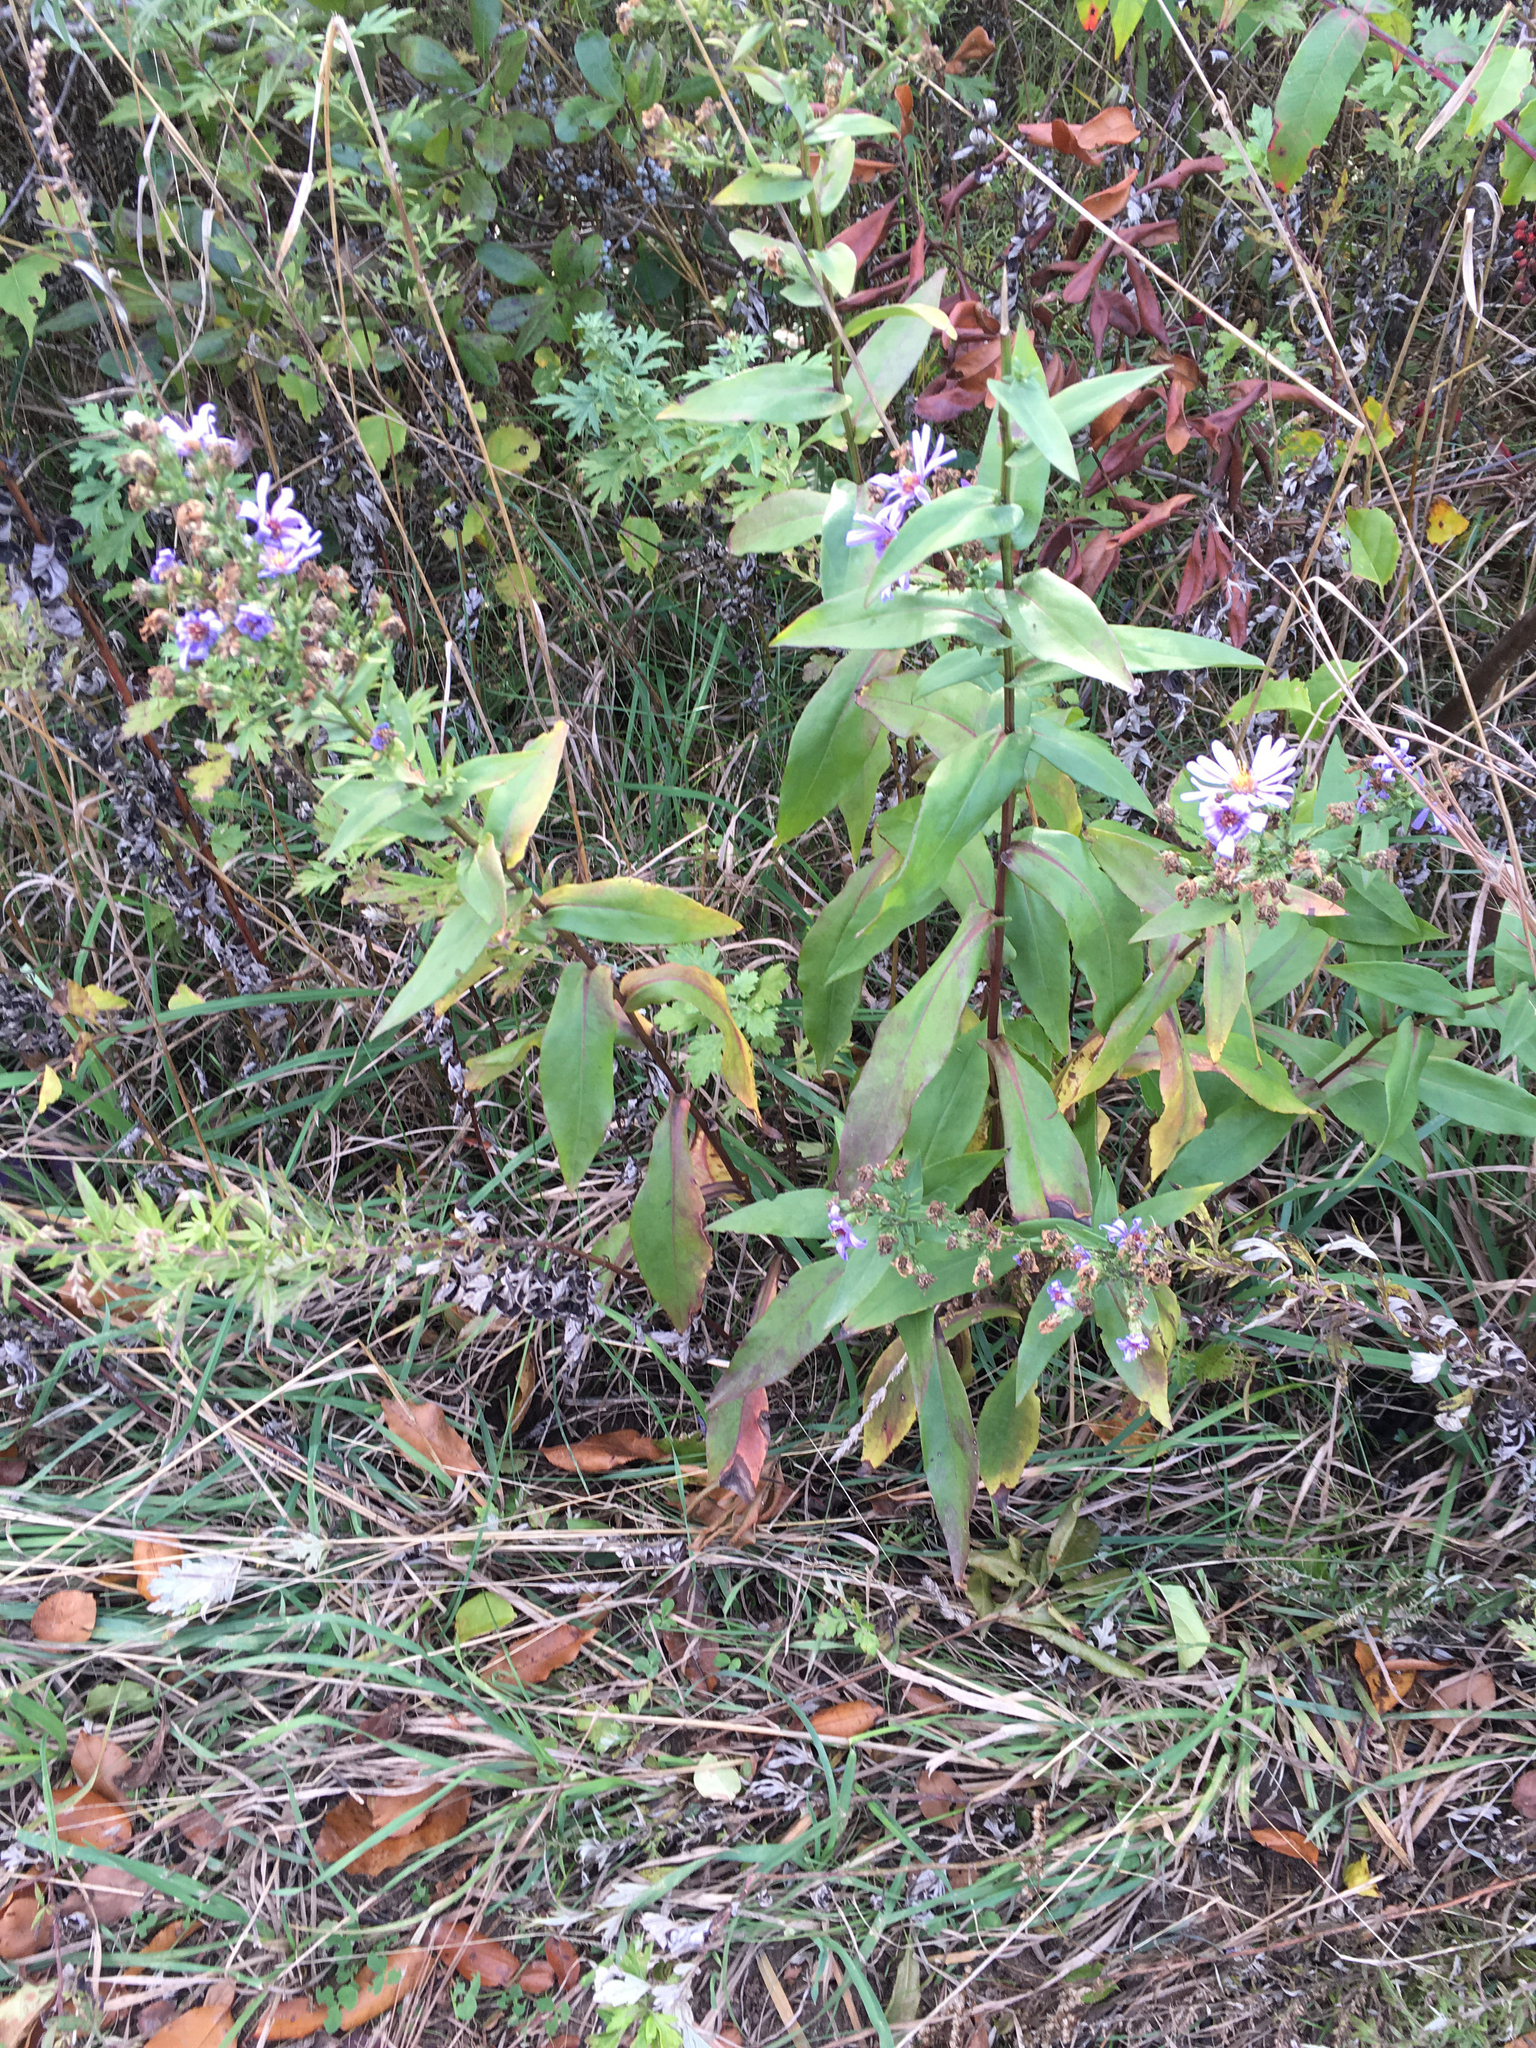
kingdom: Plantae
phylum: Tracheophyta
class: Magnoliopsida
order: Asterales
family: Asteraceae
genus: Symphyotrichum
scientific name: Symphyotrichum laeve
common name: Glaucous aster
